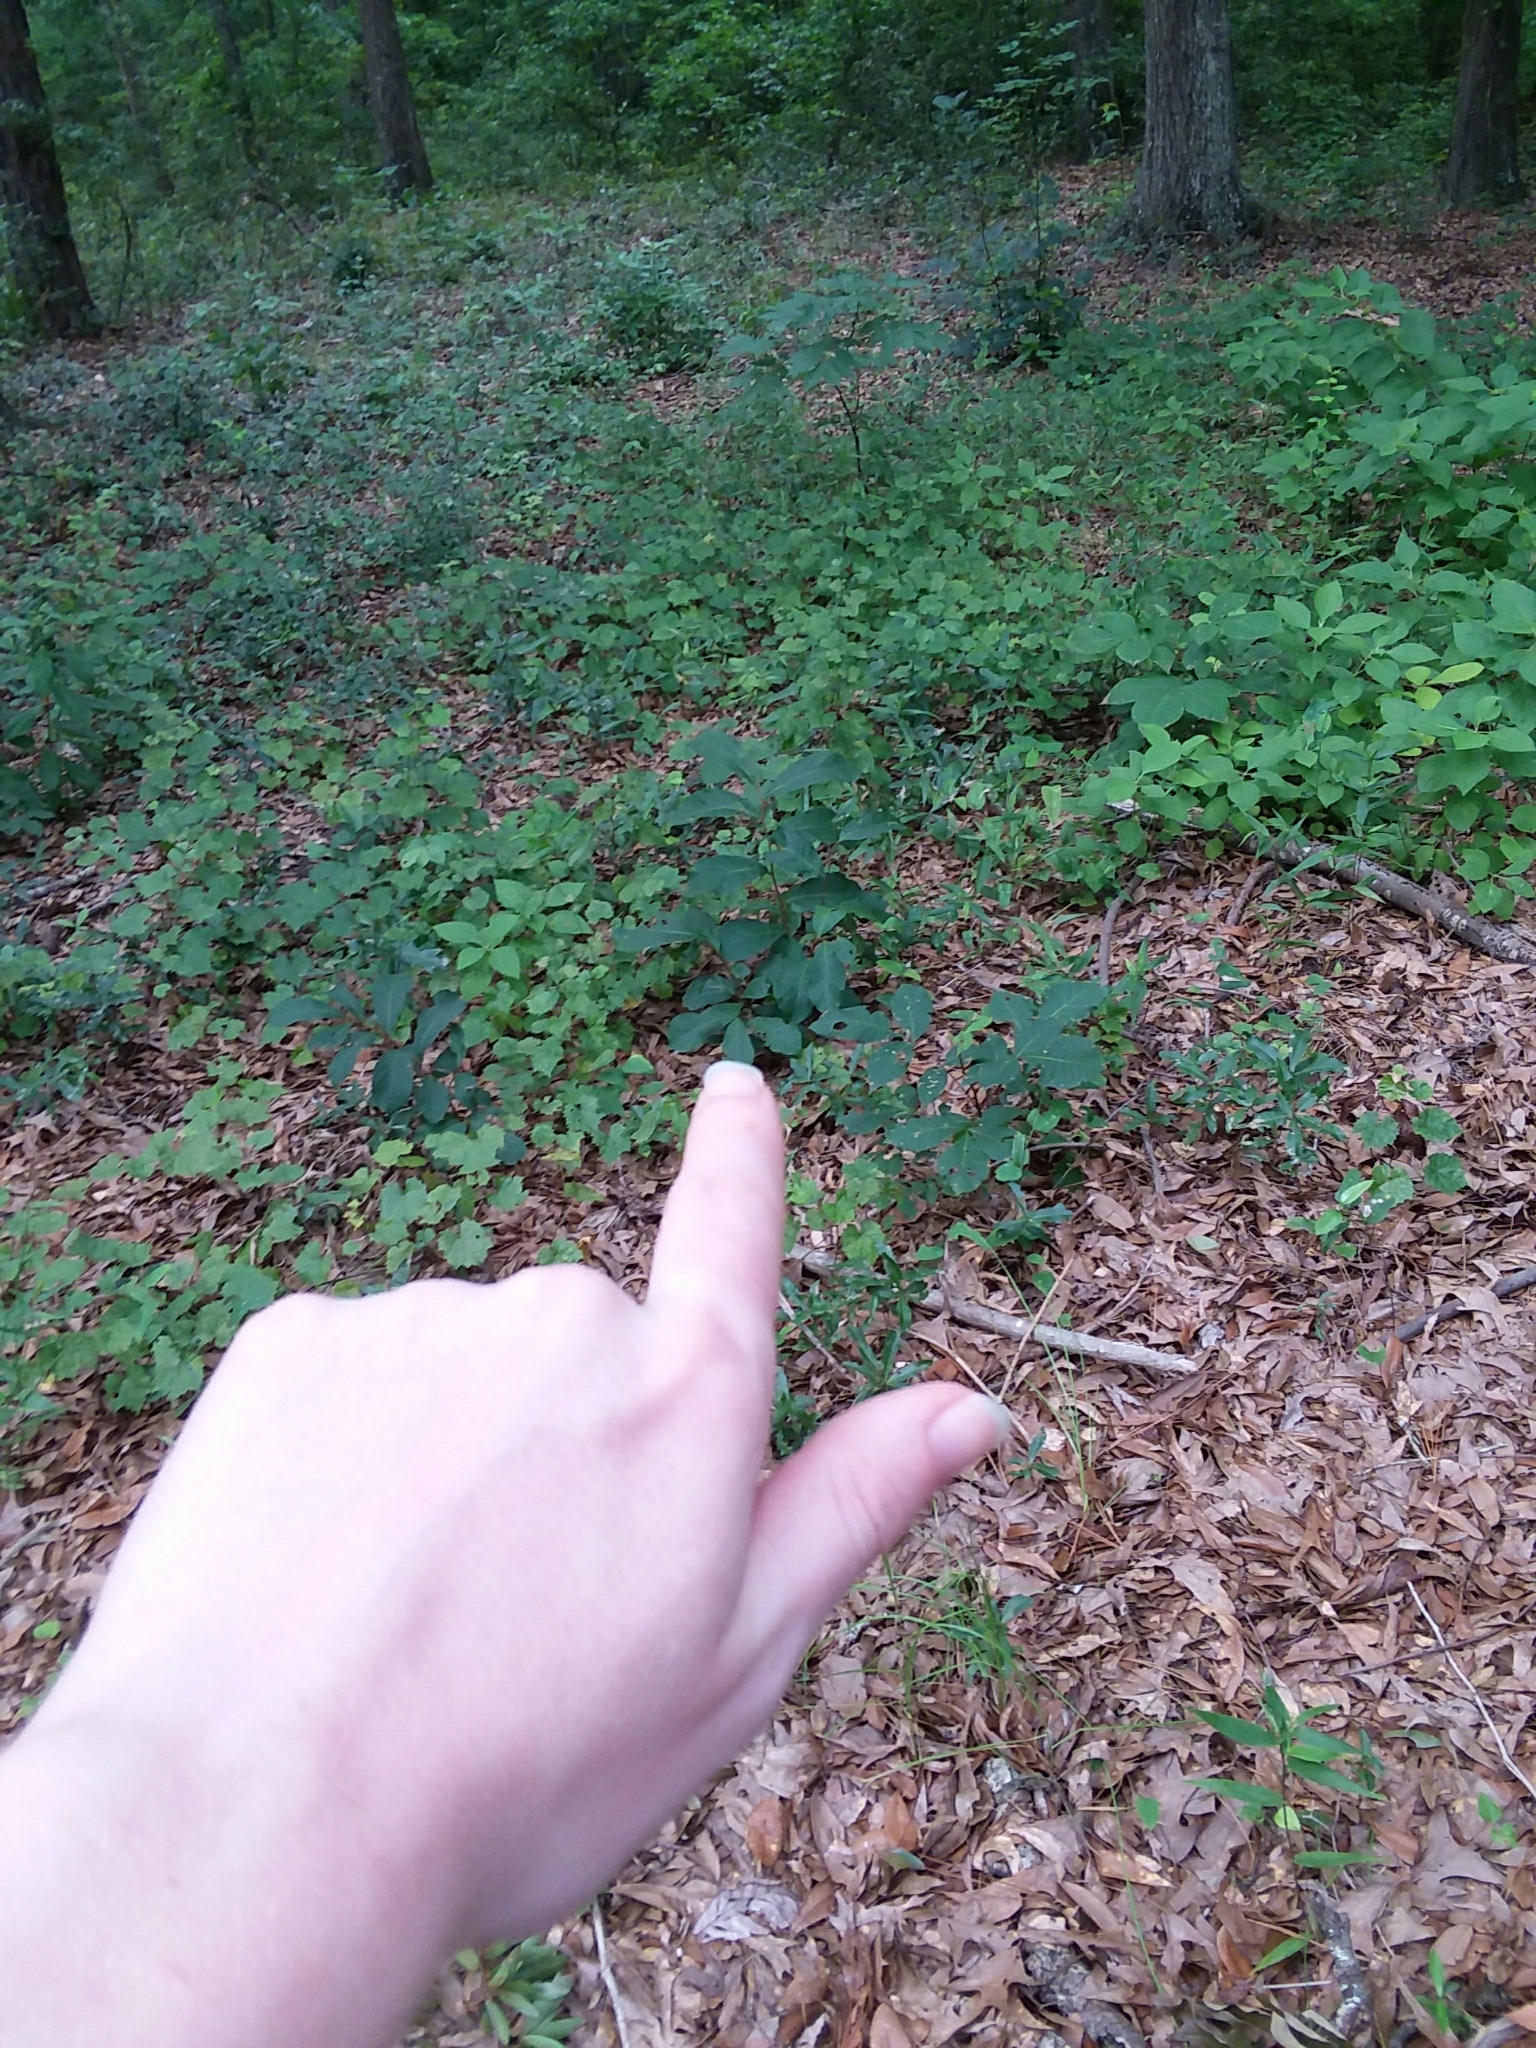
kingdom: Plantae
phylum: Tracheophyta
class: Magnoliopsida
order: Magnoliales
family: Annonaceae
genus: Asimina
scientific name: Asimina parviflora
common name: Dwarf pawpaw
